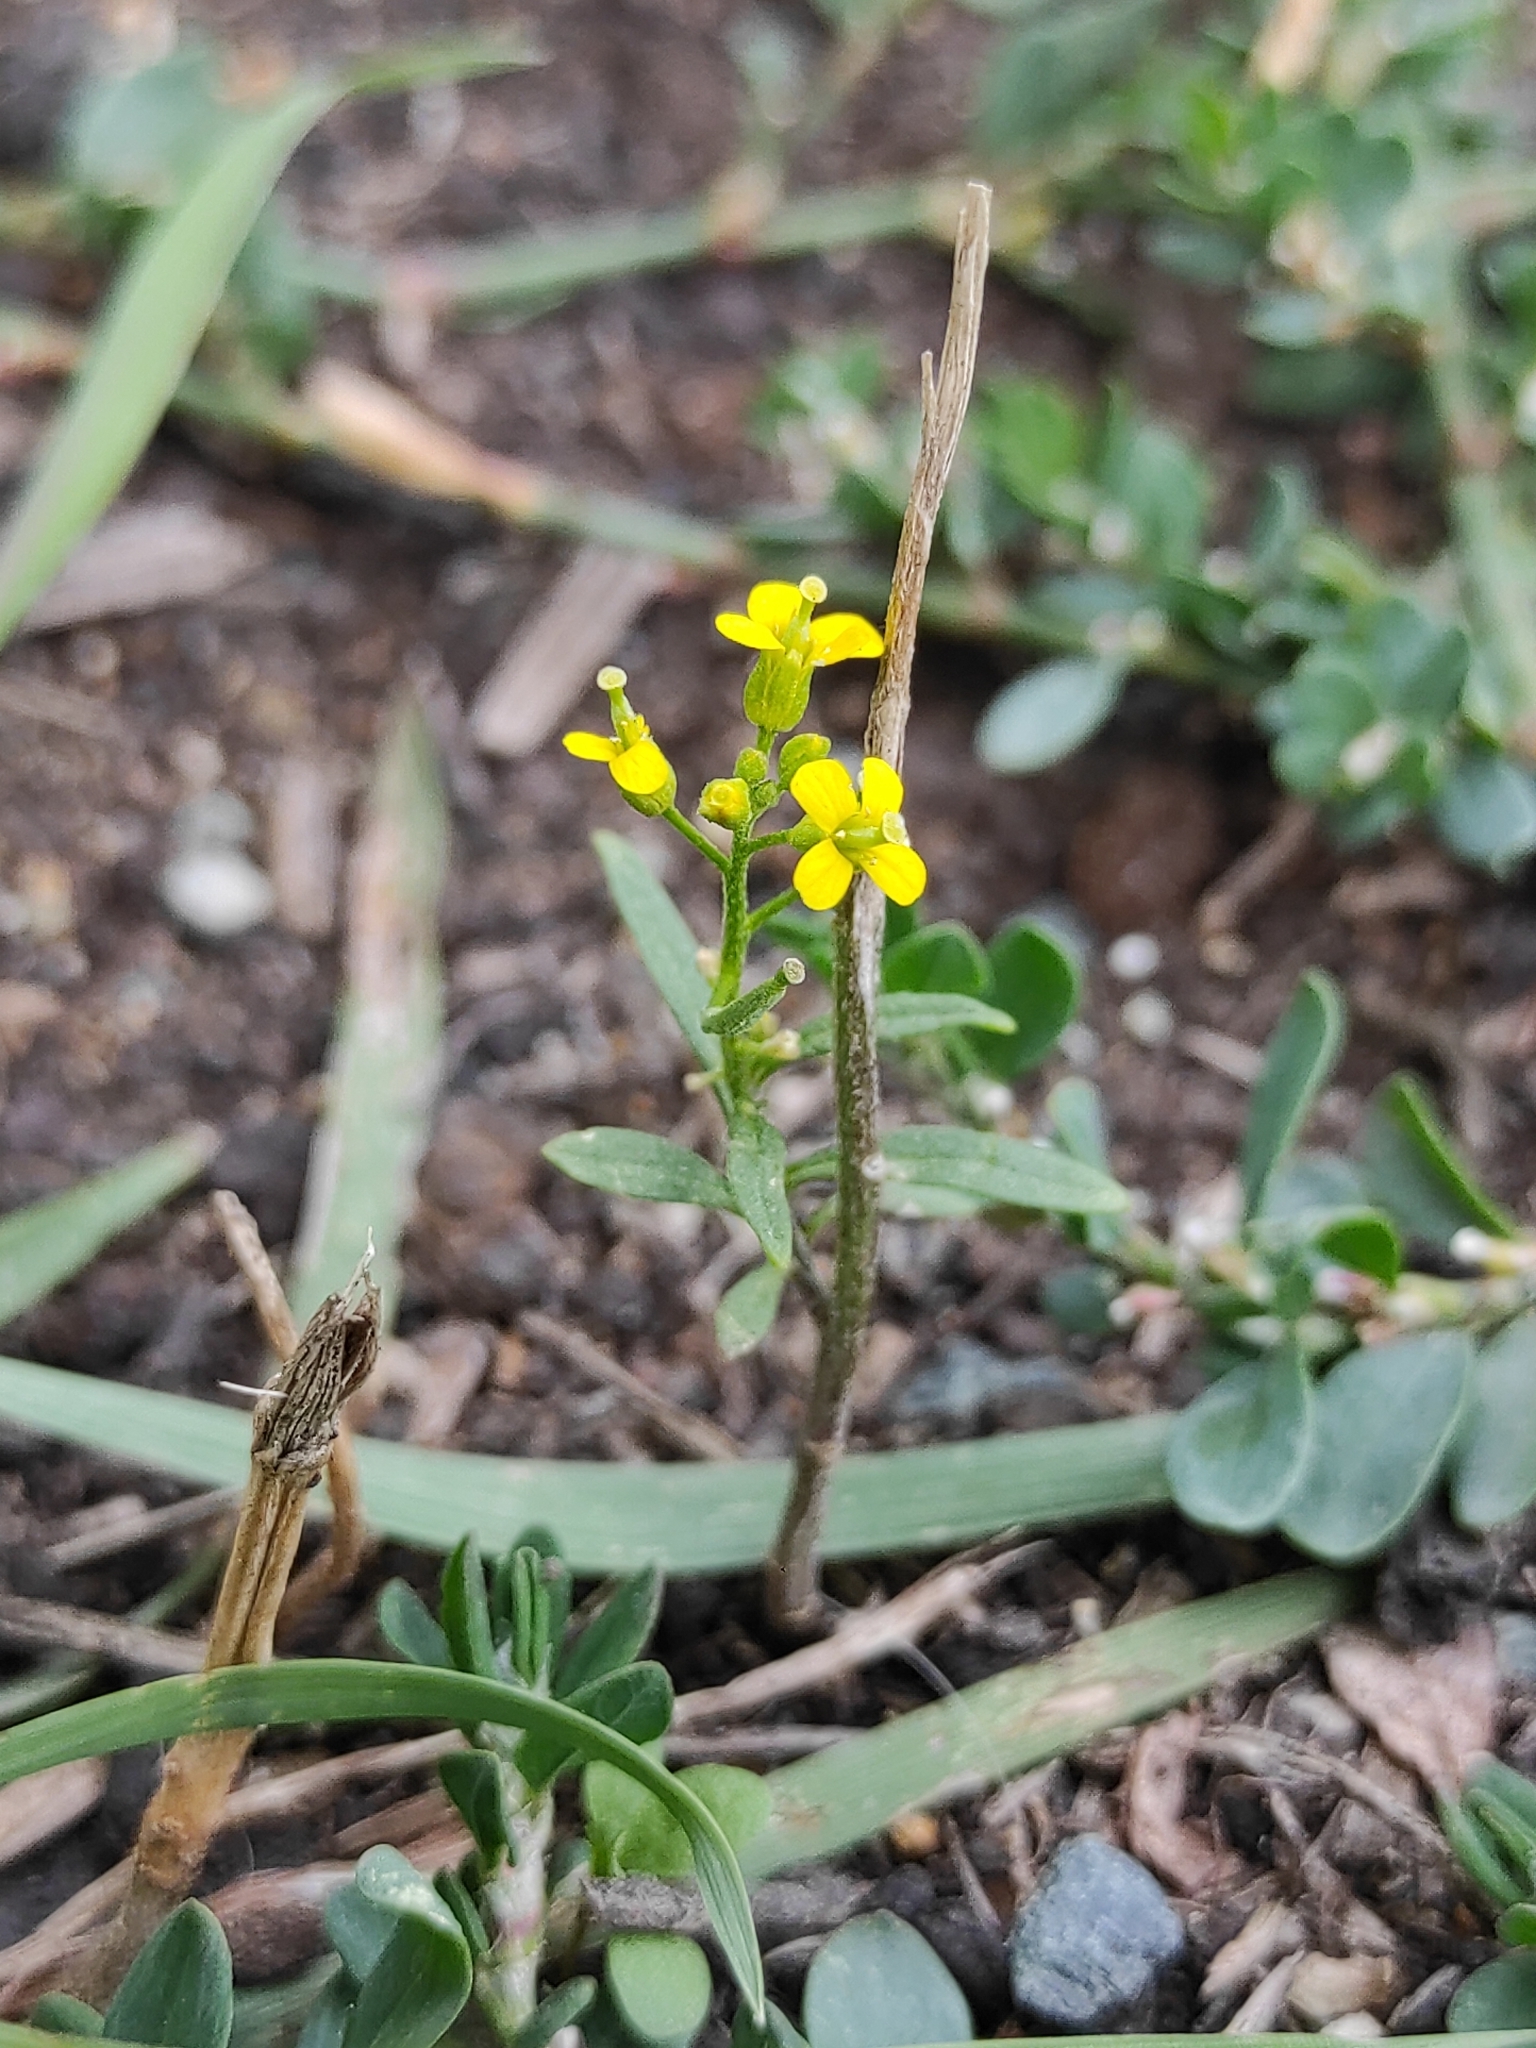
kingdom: Plantae
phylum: Tracheophyta
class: Magnoliopsida
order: Brassicales
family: Brassicaceae
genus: Erysimum
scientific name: Erysimum cheiranthoides
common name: Treacle mustard
